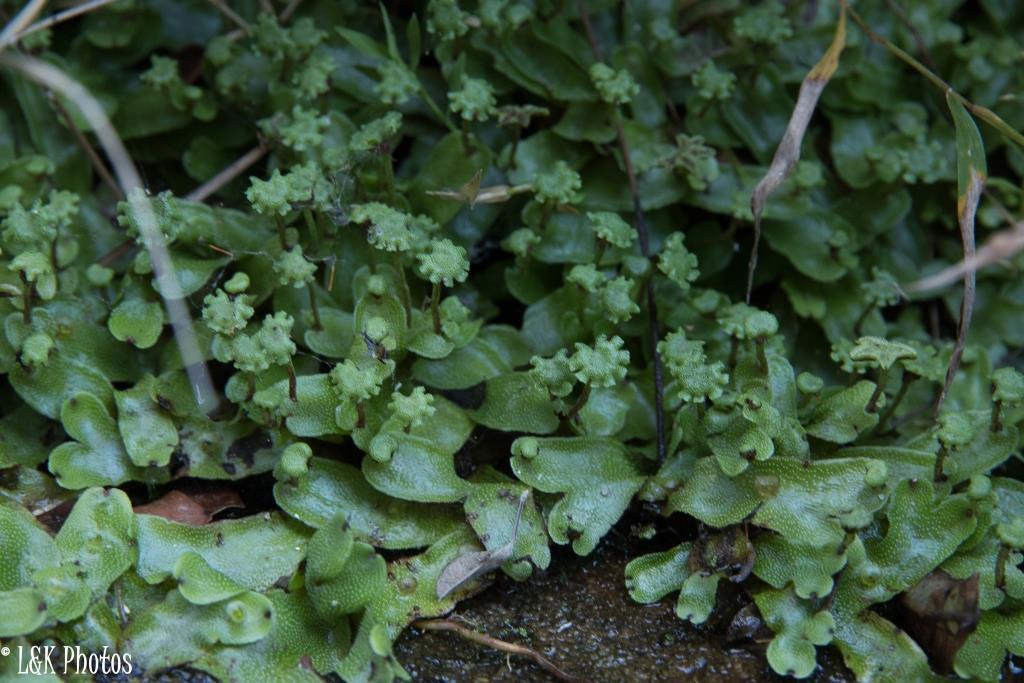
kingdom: Plantae
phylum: Marchantiophyta
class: Marchantiopsida
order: Marchantiales
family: Marchantiaceae
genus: Marchantia
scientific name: Marchantia pappeana
